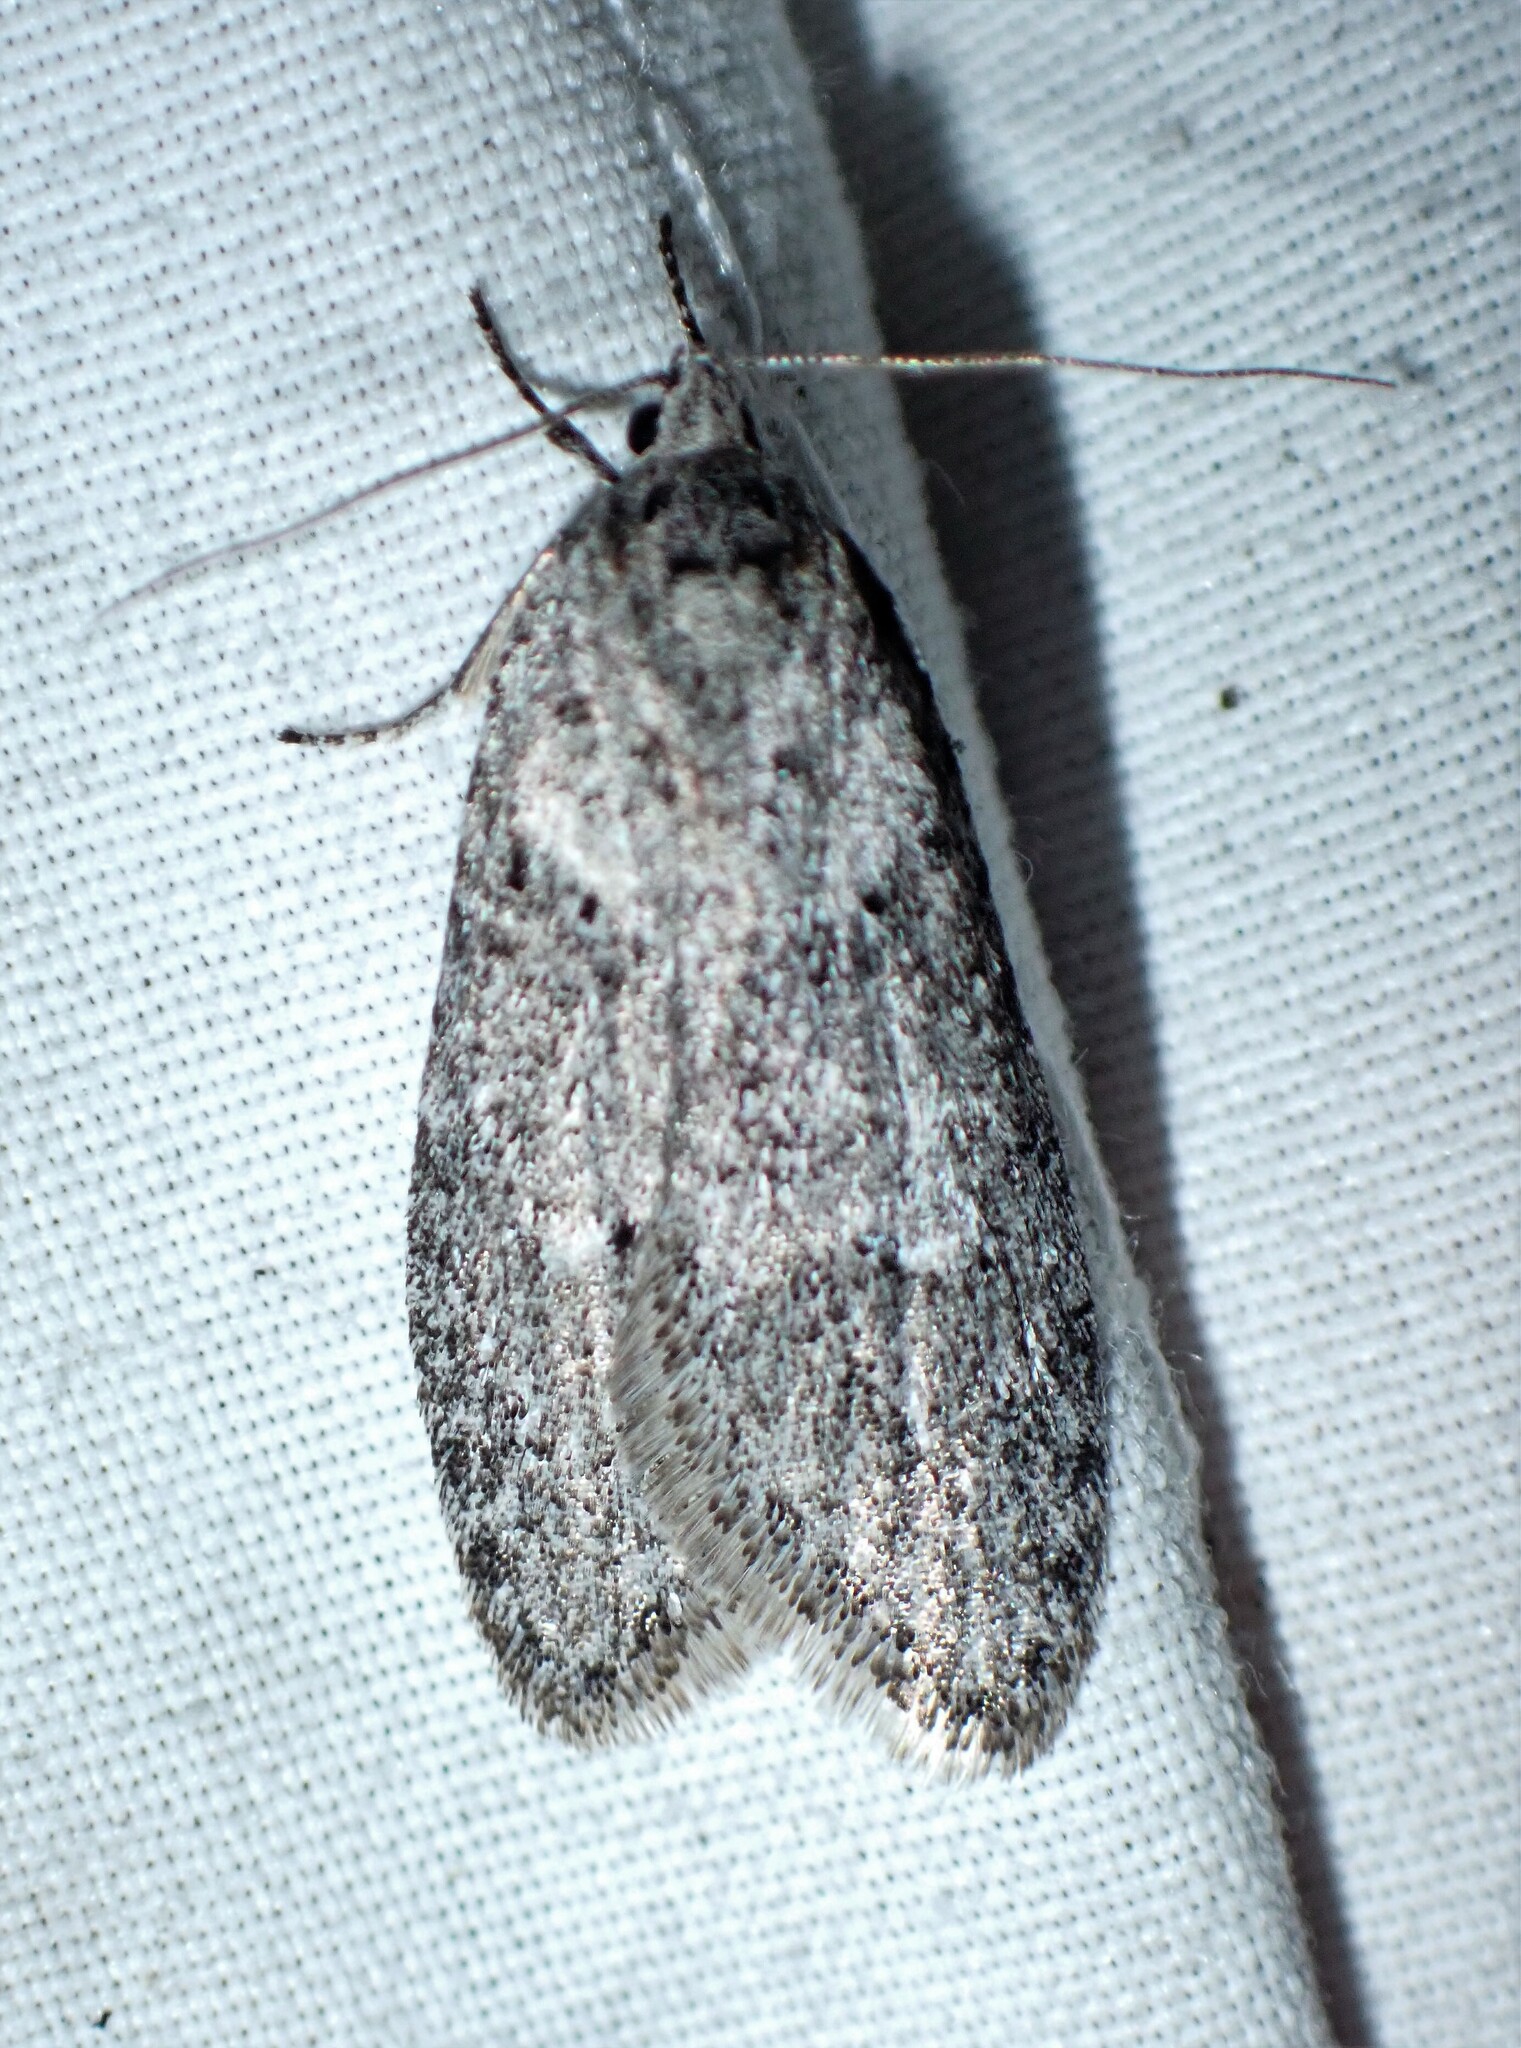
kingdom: Animalia
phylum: Arthropoda
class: Insecta
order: Lepidoptera
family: Depressariidae
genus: Semioscopis
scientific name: Semioscopis inornata
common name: Poplar micromoth
